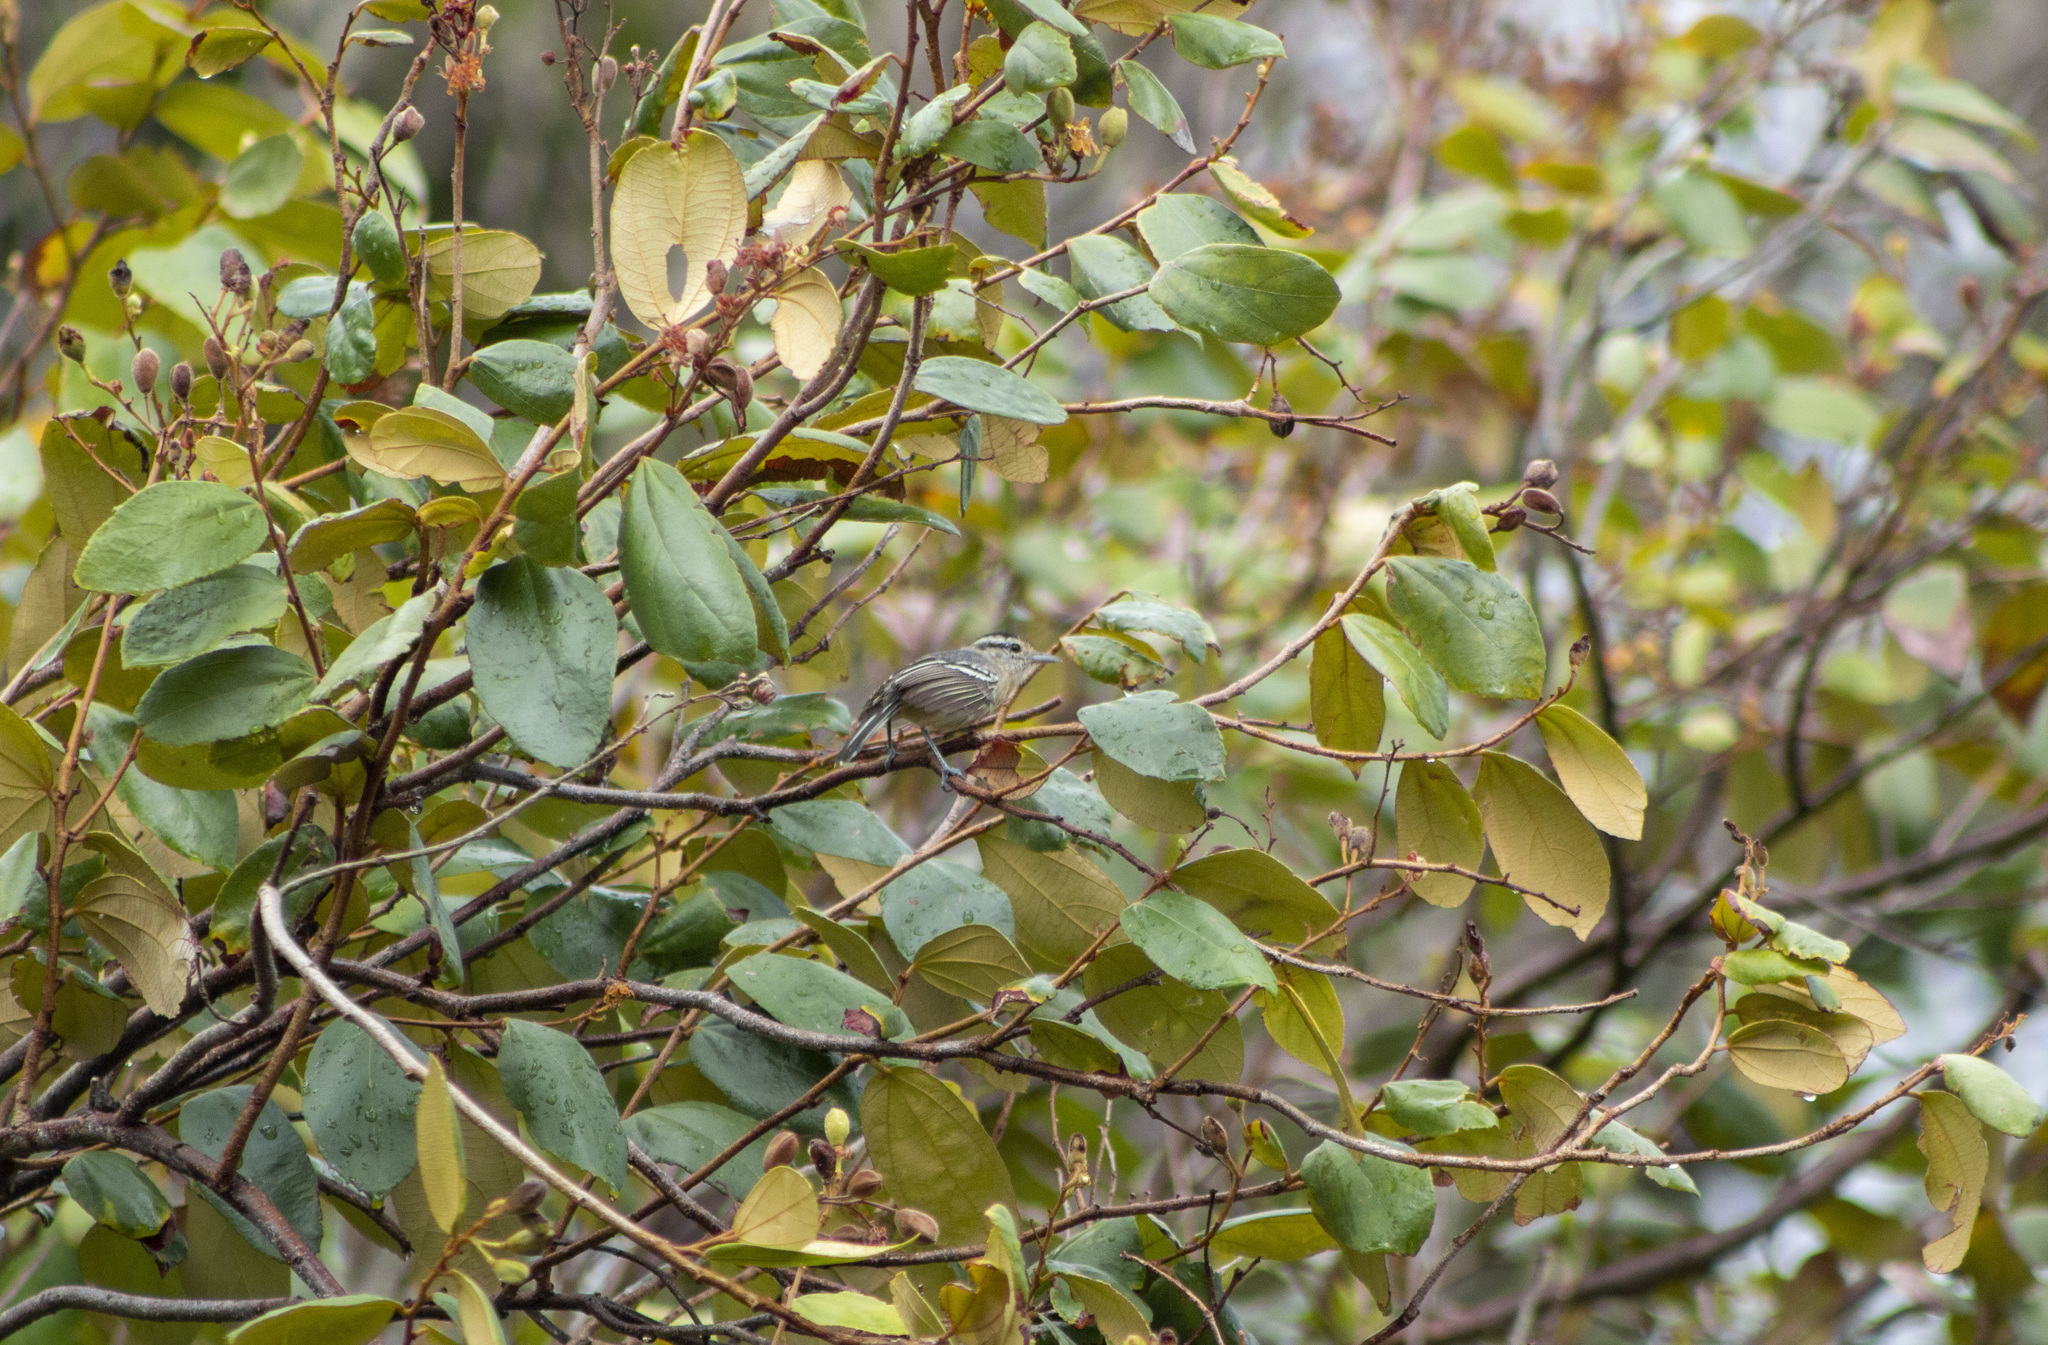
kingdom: Animalia
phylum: Chordata
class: Aves
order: Passeriformes
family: Thamnophilidae
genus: Herpsilochmus
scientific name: Herpsilochmus atricapillus
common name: Black-capped antwren
